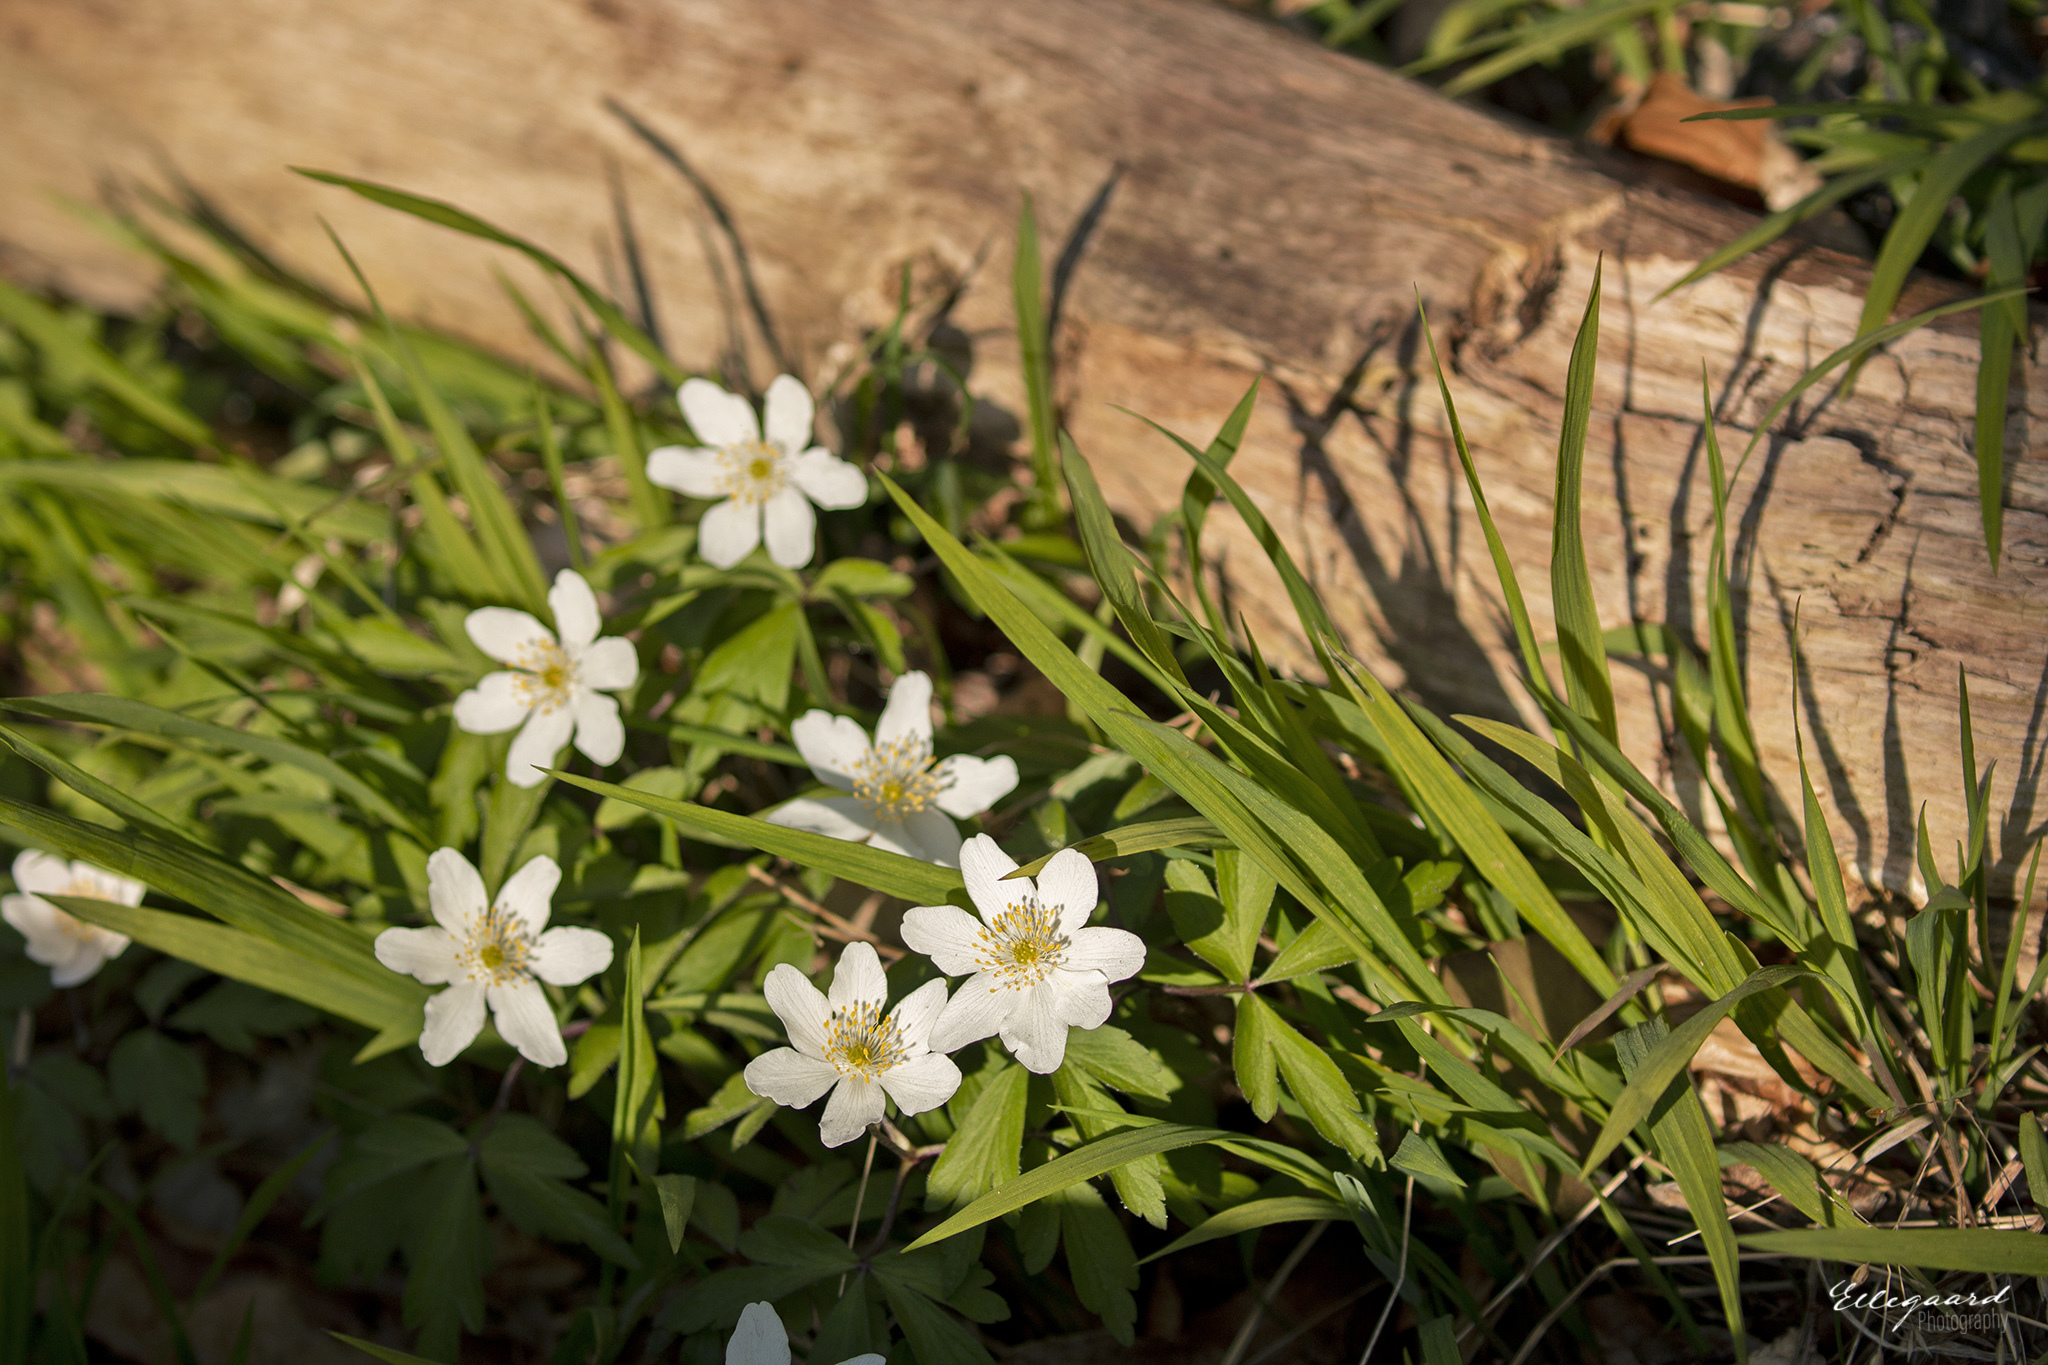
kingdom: Plantae
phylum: Tracheophyta
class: Magnoliopsida
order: Ranunculales
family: Ranunculaceae
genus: Anemone
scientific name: Anemone nemorosa
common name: Wood anemone
